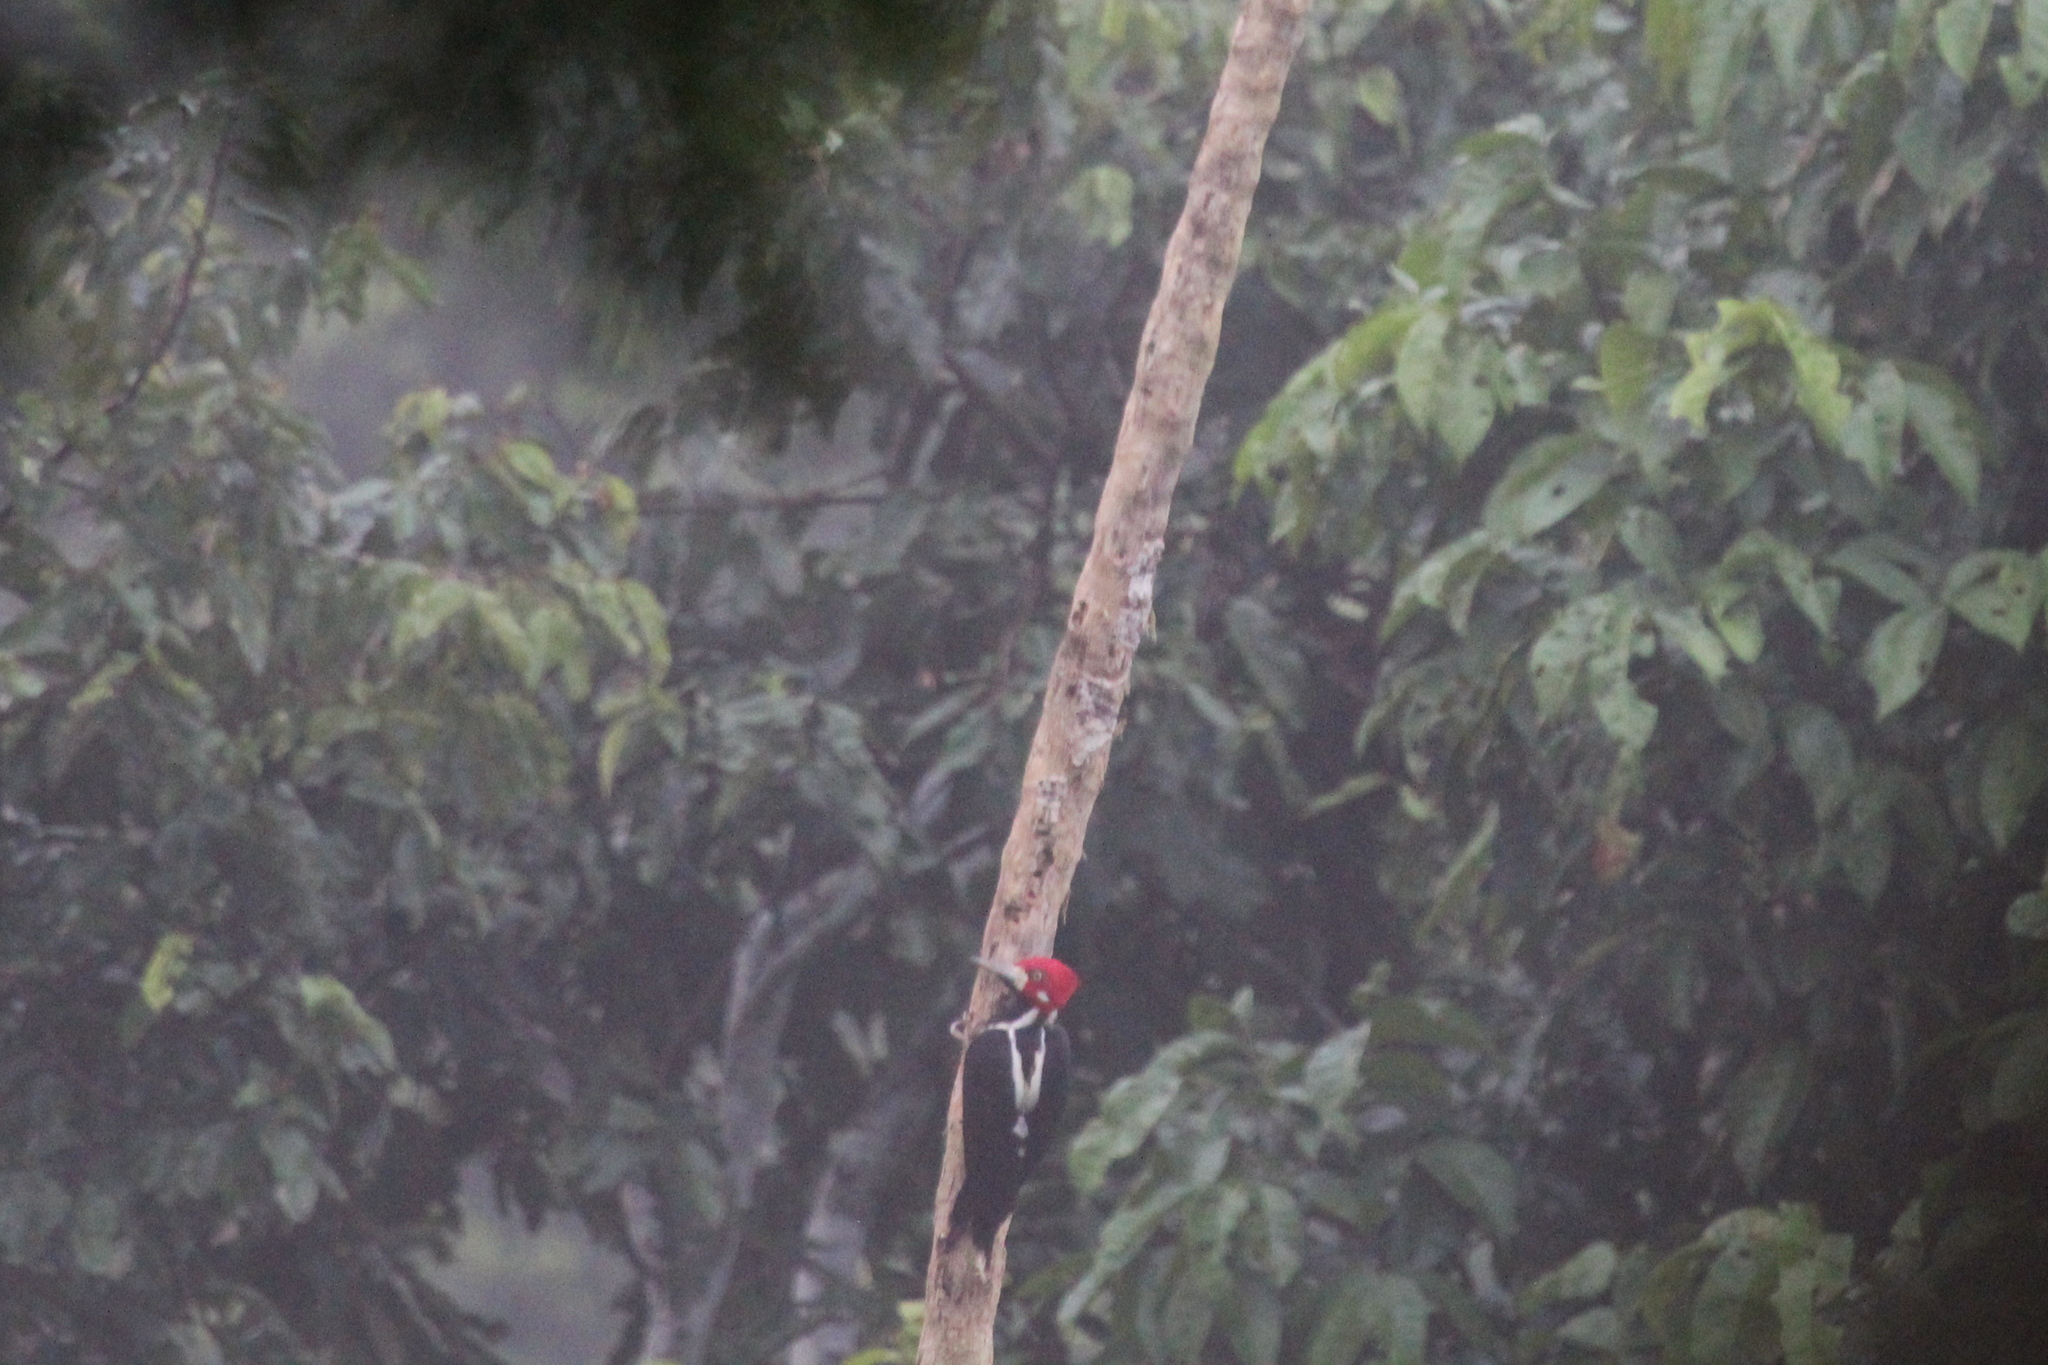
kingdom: Animalia
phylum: Chordata
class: Aves
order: Piciformes
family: Picidae
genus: Campephilus
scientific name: Campephilus melanoleucos
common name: Crimson-crested woodpecker
